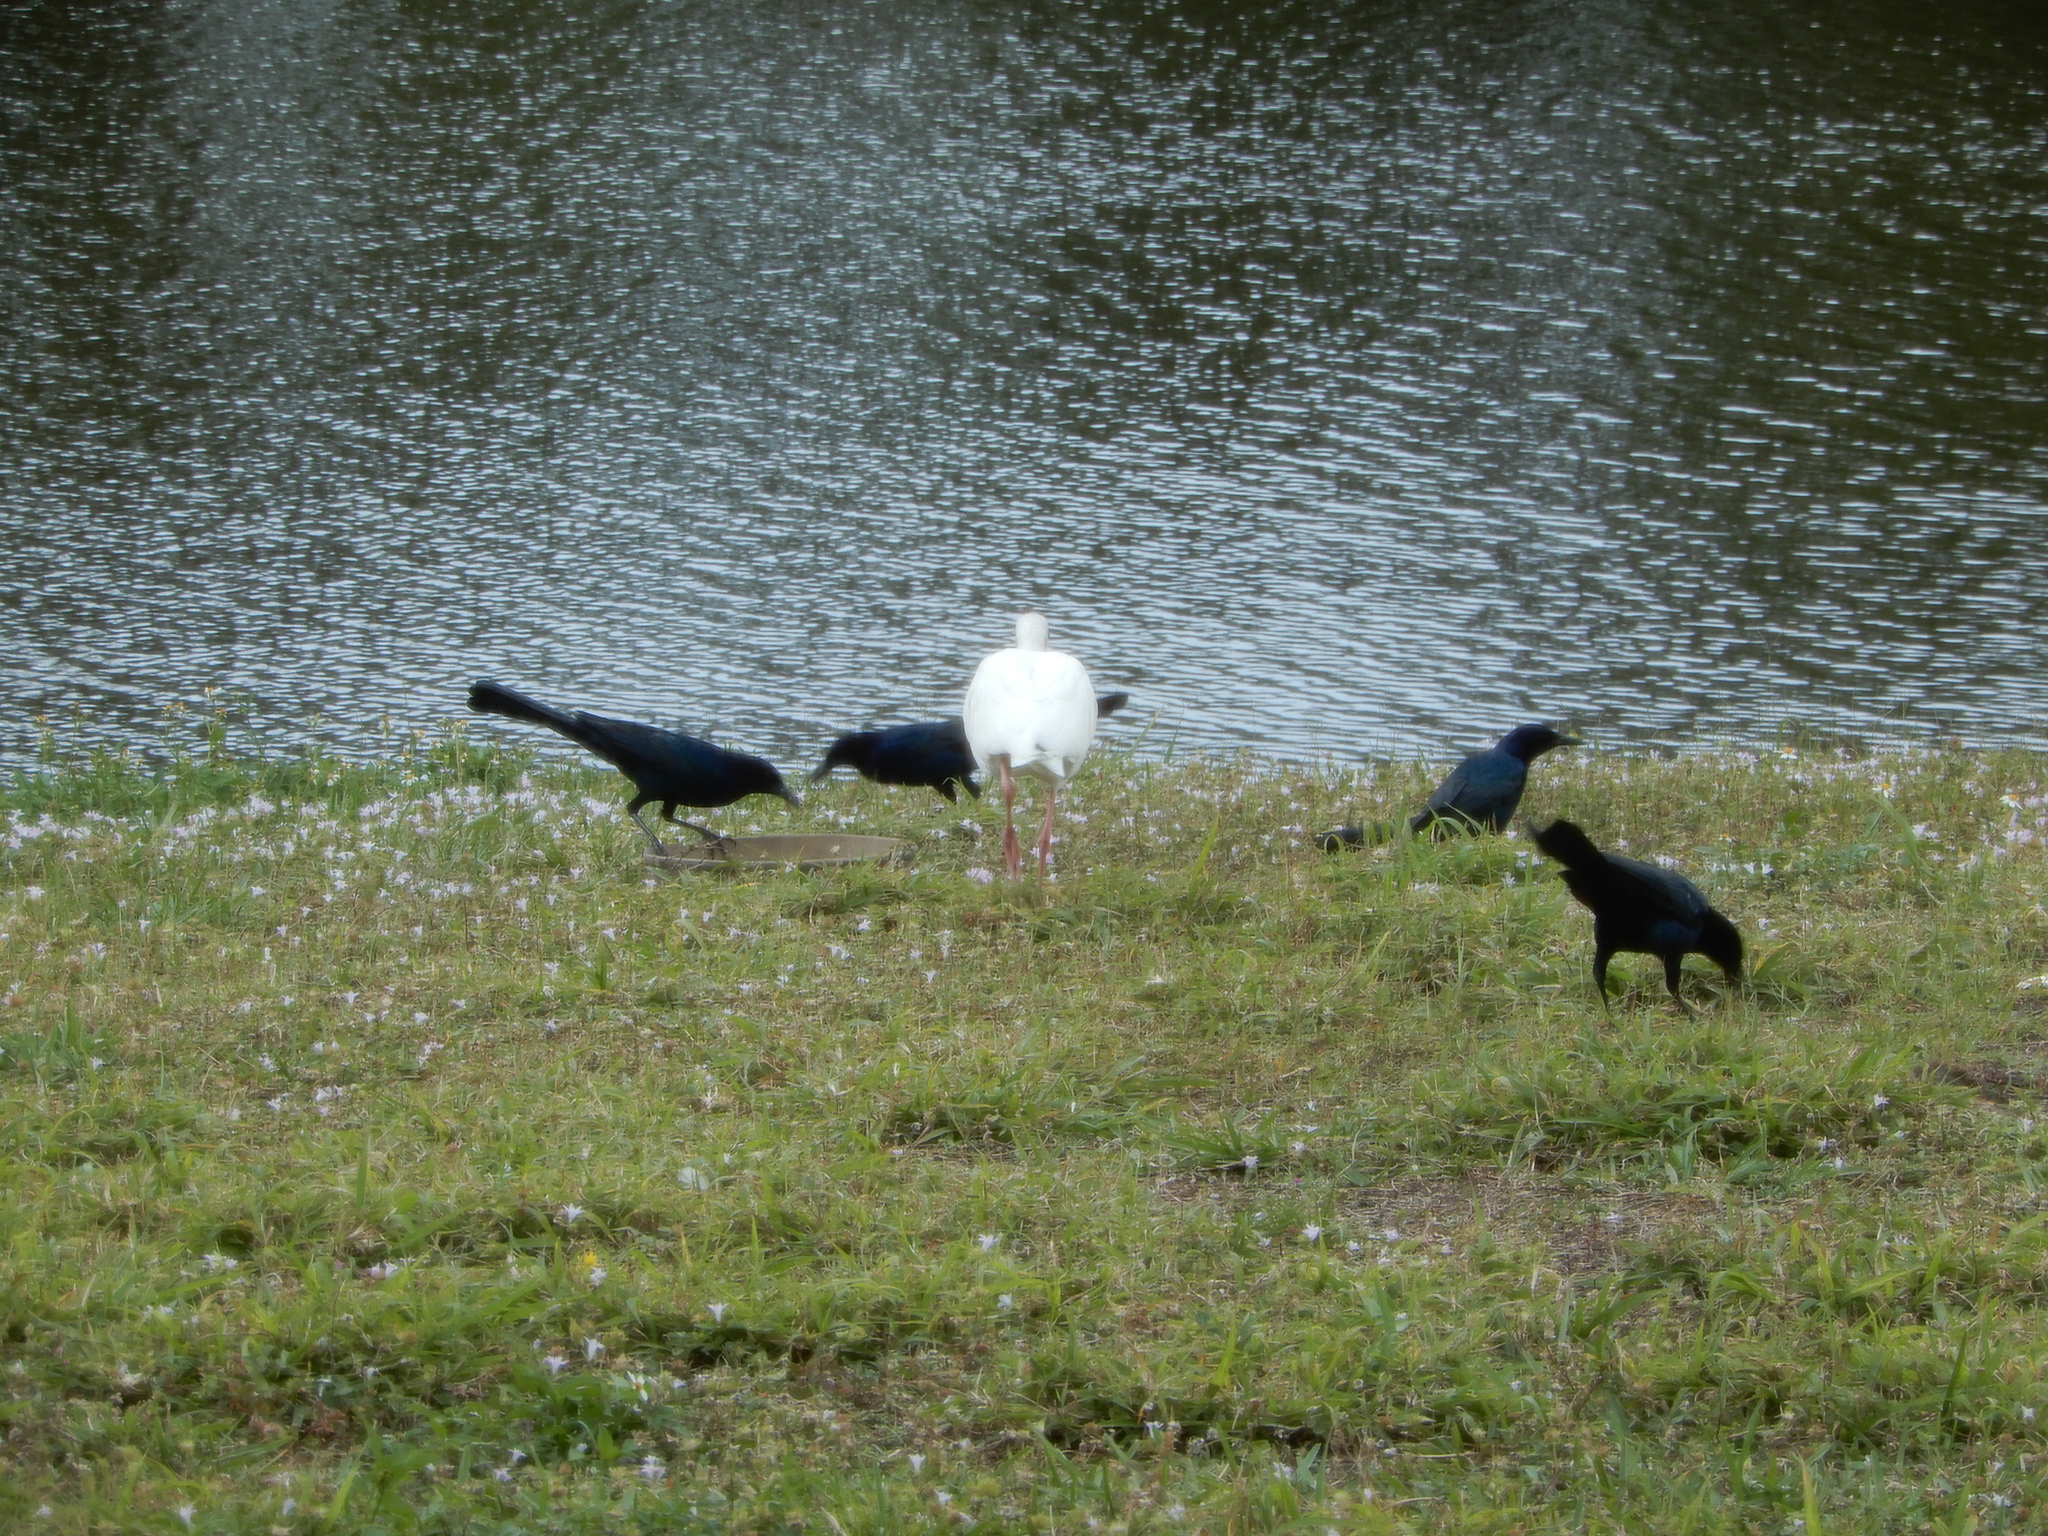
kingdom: Animalia
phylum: Chordata
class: Aves
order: Passeriformes
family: Icteridae
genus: Quiscalus
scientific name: Quiscalus major
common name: Boat-tailed grackle
